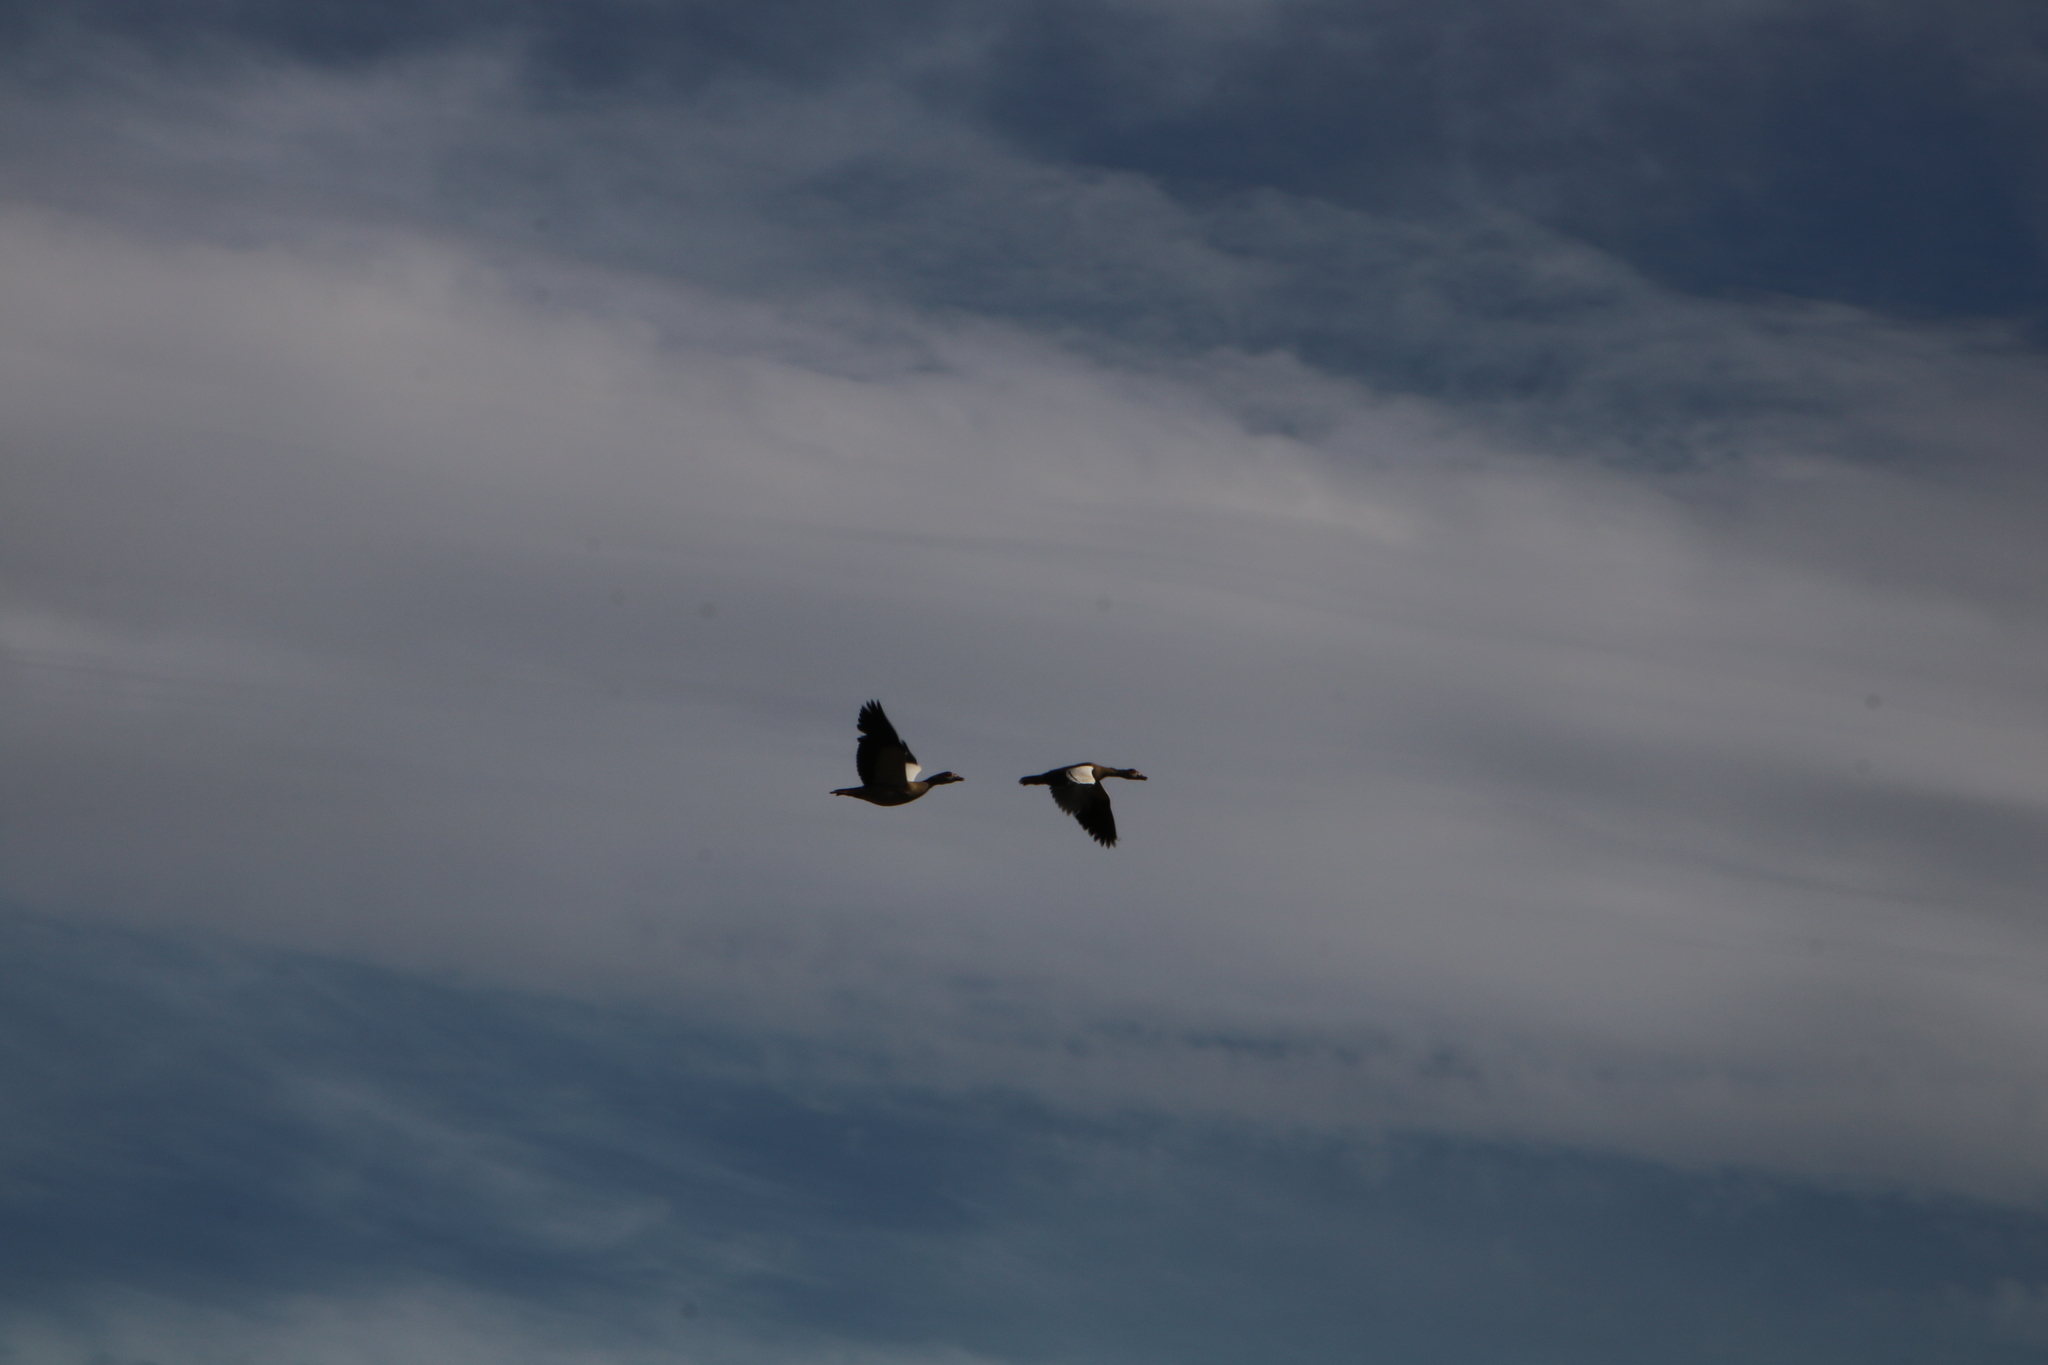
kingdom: Animalia
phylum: Chordata
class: Aves
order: Anseriformes
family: Anatidae
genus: Alopochen
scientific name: Alopochen aegyptiaca
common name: Egyptian goose
